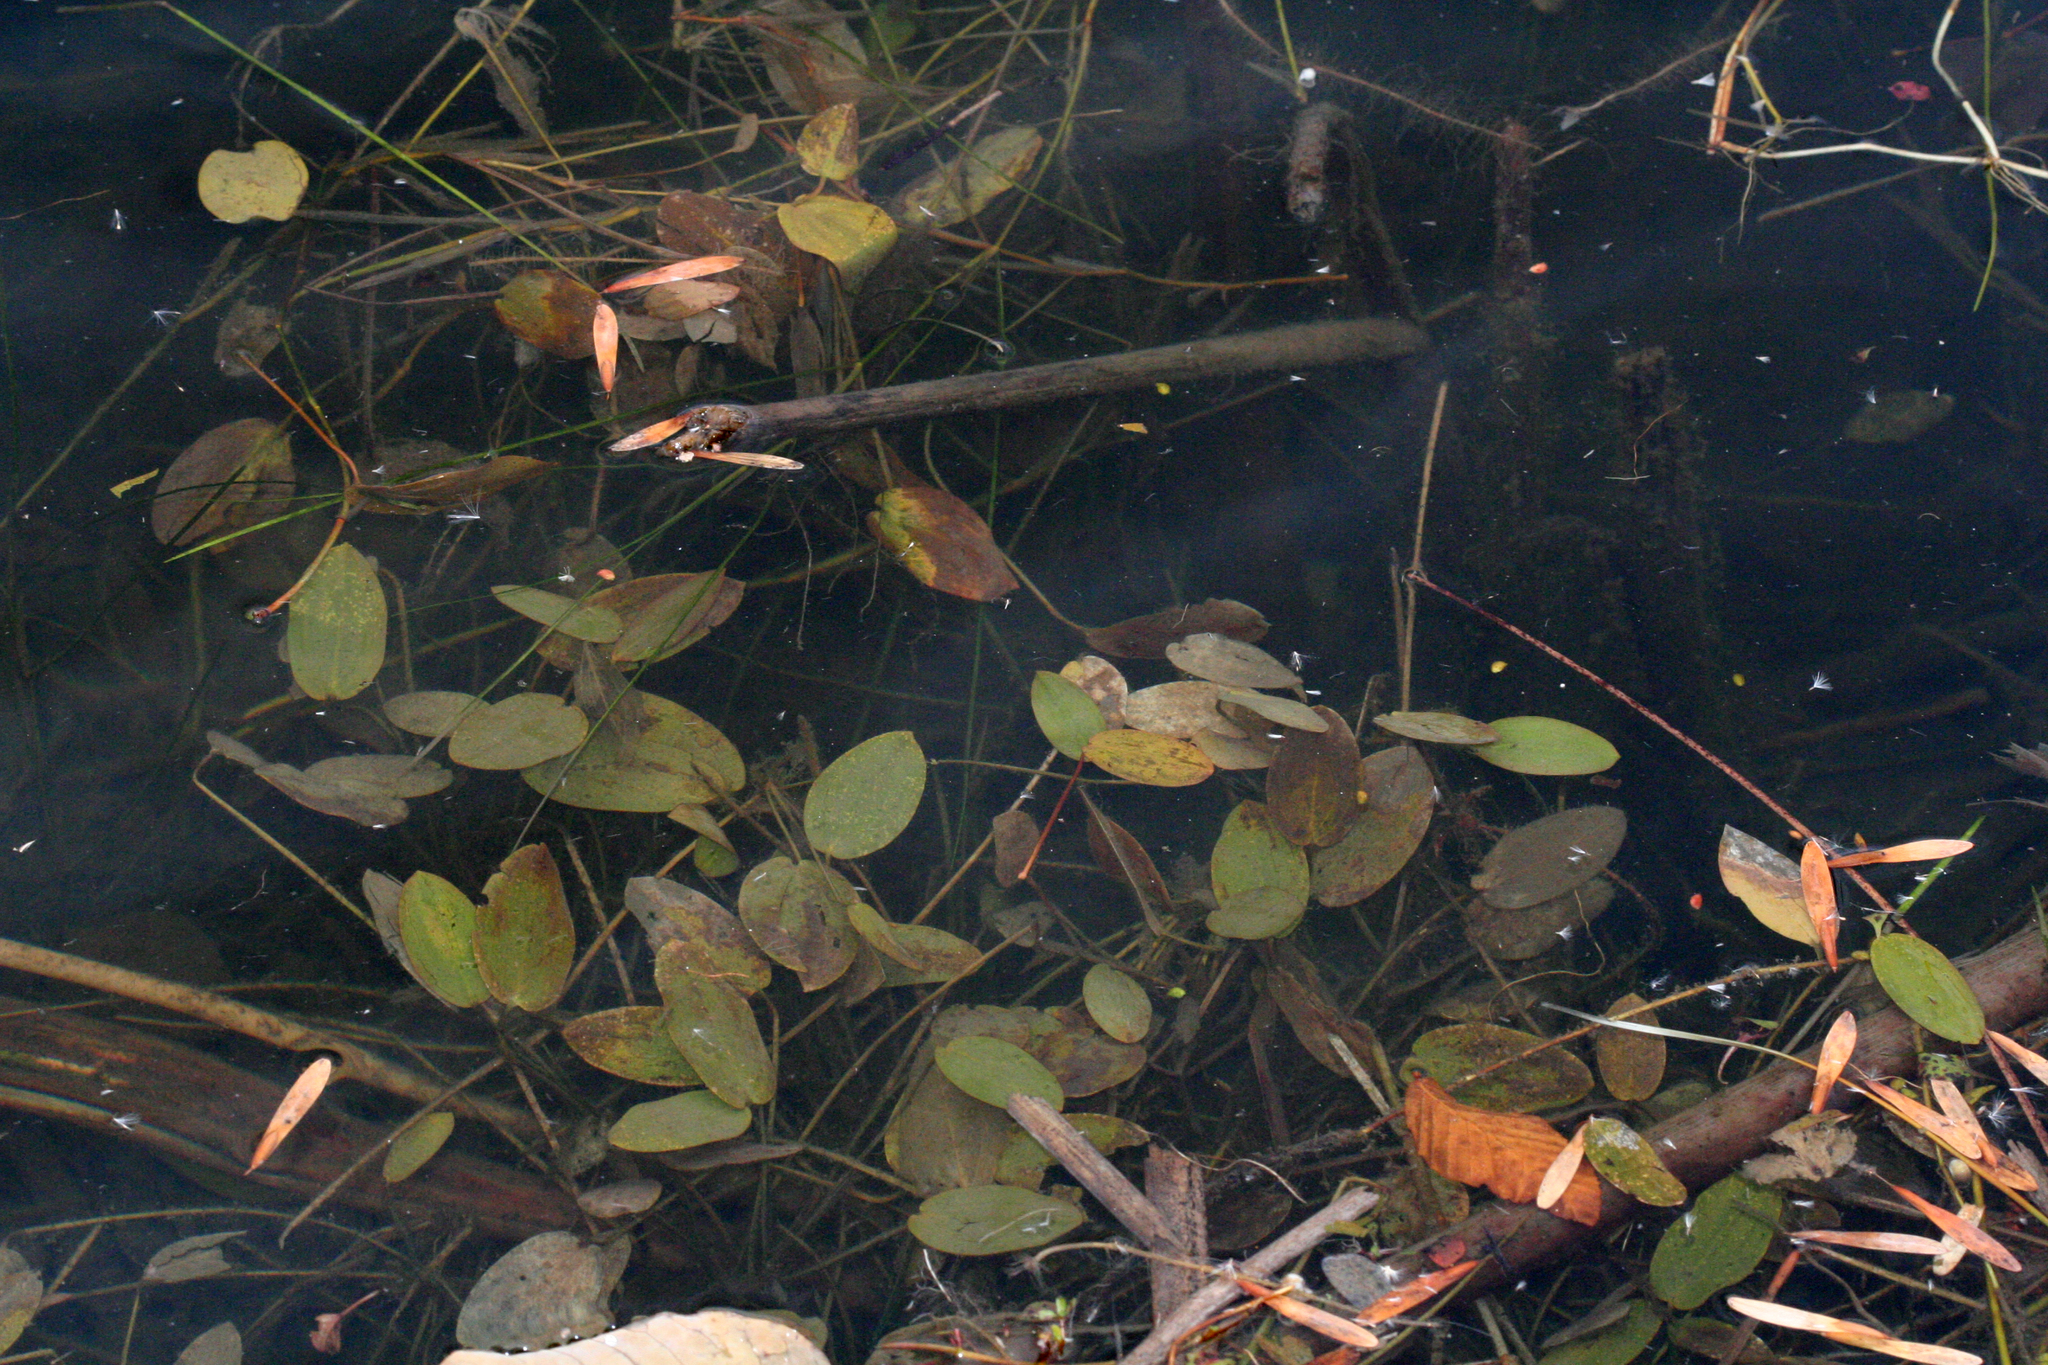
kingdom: Plantae
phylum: Tracheophyta
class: Liliopsida
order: Alismatales
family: Potamogetonaceae
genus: Potamogeton
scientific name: Potamogeton natans
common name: Broad-leaved pondweed
